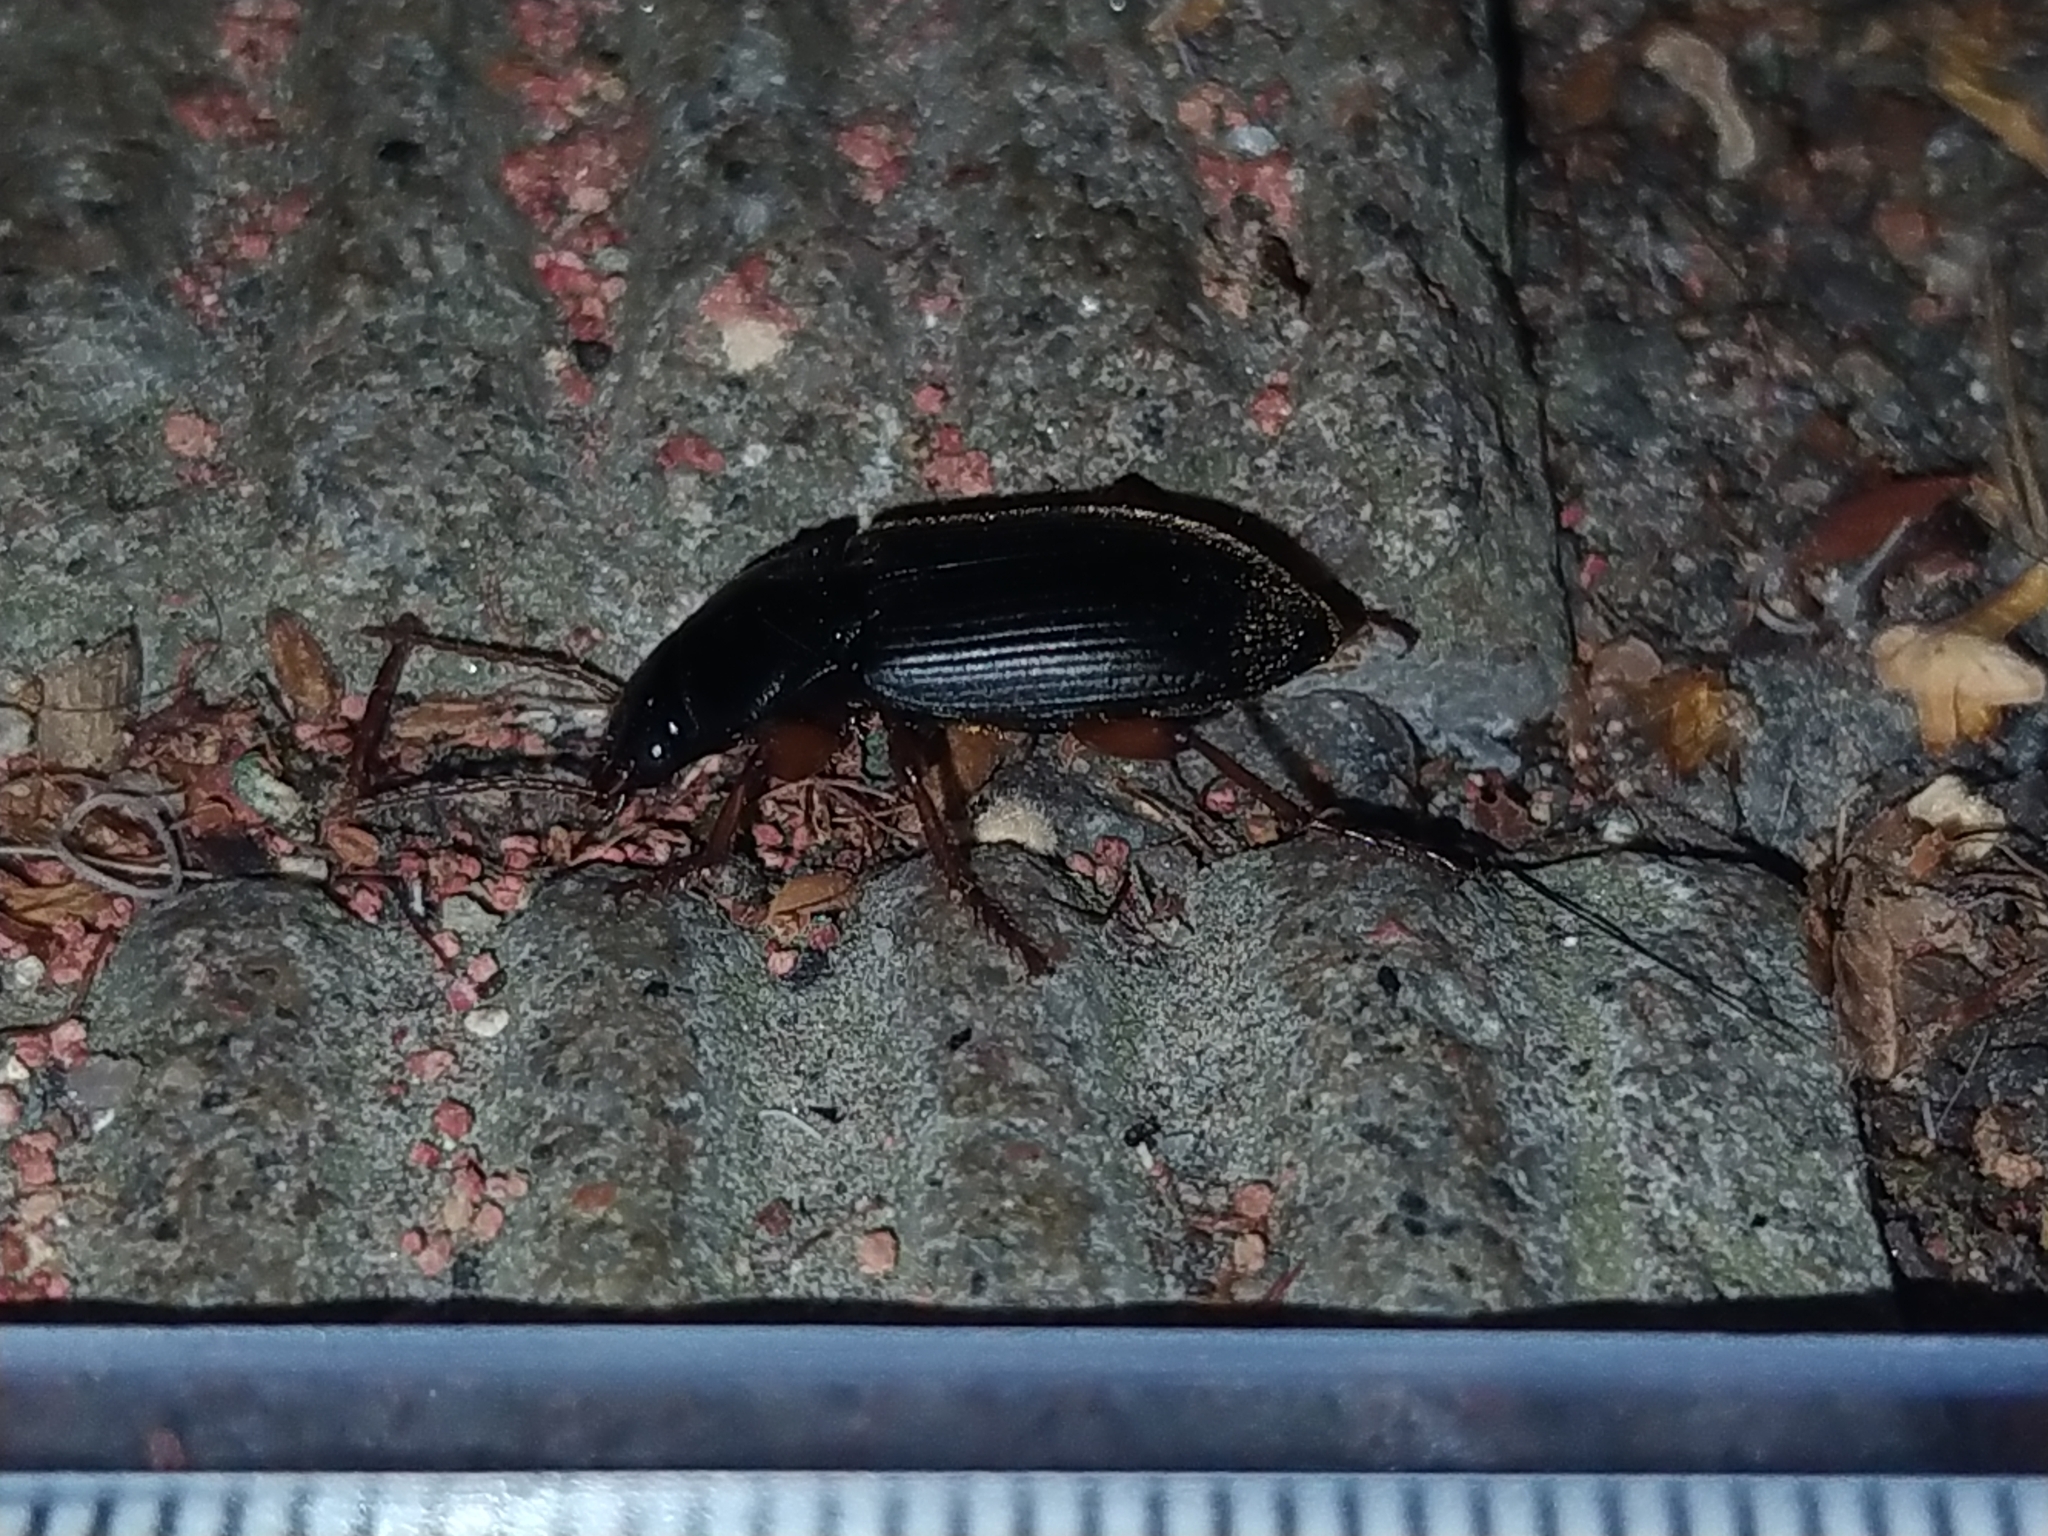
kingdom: Animalia
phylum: Arthropoda
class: Insecta
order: Coleoptera
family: Carabidae
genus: Harpalus
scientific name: Harpalus rufipes
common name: Strawberry harp ground beetle
